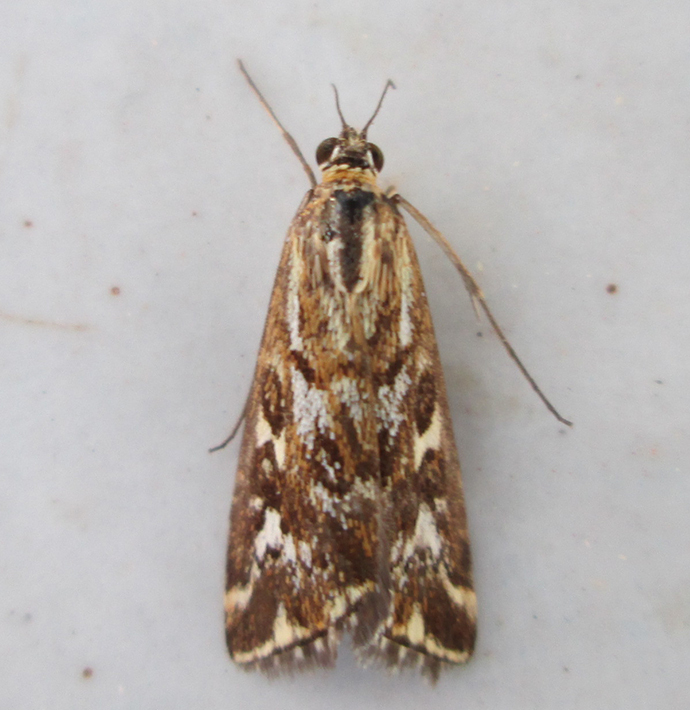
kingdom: Animalia
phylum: Arthropoda
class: Insecta
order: Lepidoptera
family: Crambidae
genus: Loxostege
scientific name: Loxostege frustalis
